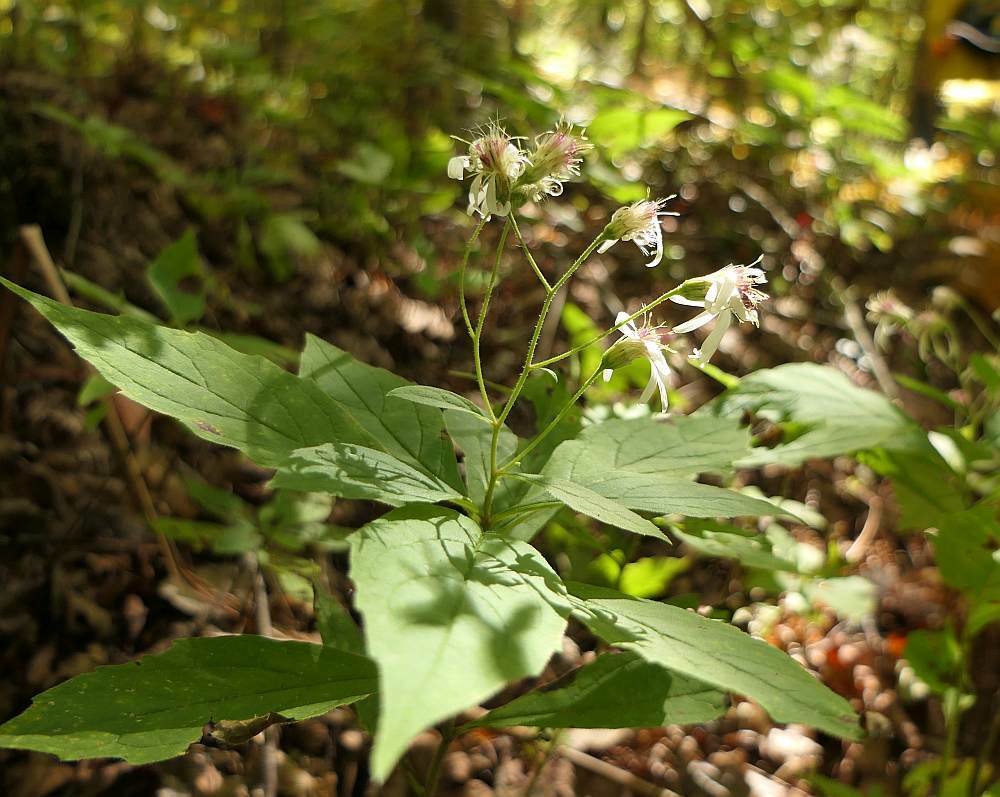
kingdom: Plantae
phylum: Tracheophyta
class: Magnoliopsida
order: Asterales
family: Asteraceae
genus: Oclemena
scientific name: Oclemena acuminata
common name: Mountain aster
